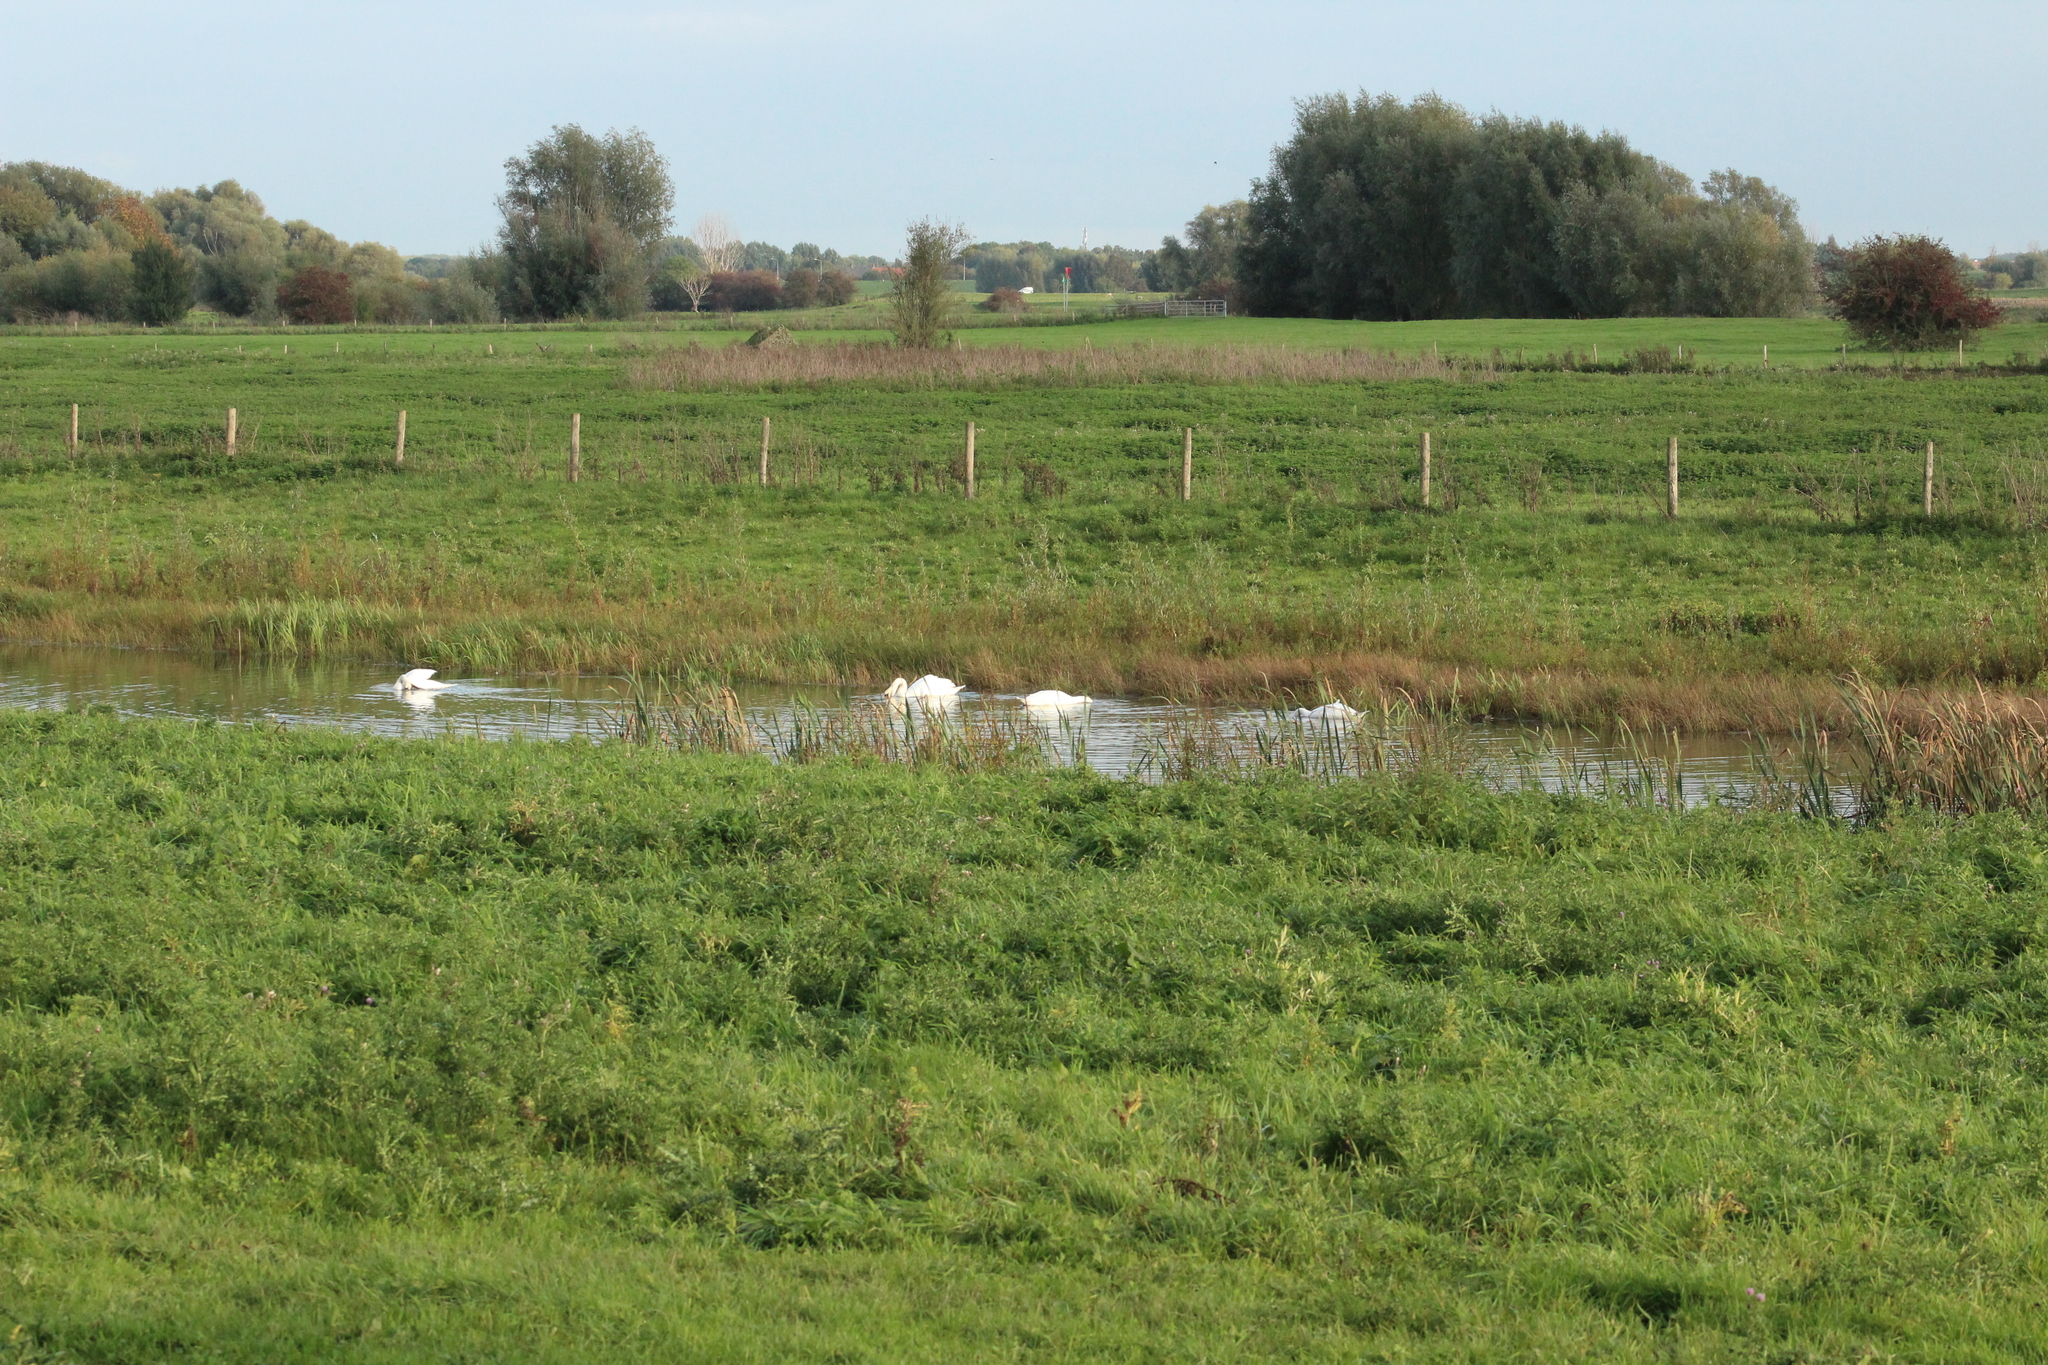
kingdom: Animalia
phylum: Chordata
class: Aves
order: Anseriformes
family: Anatidae
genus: Cygnus
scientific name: Cygnus olor
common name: Mute swan
